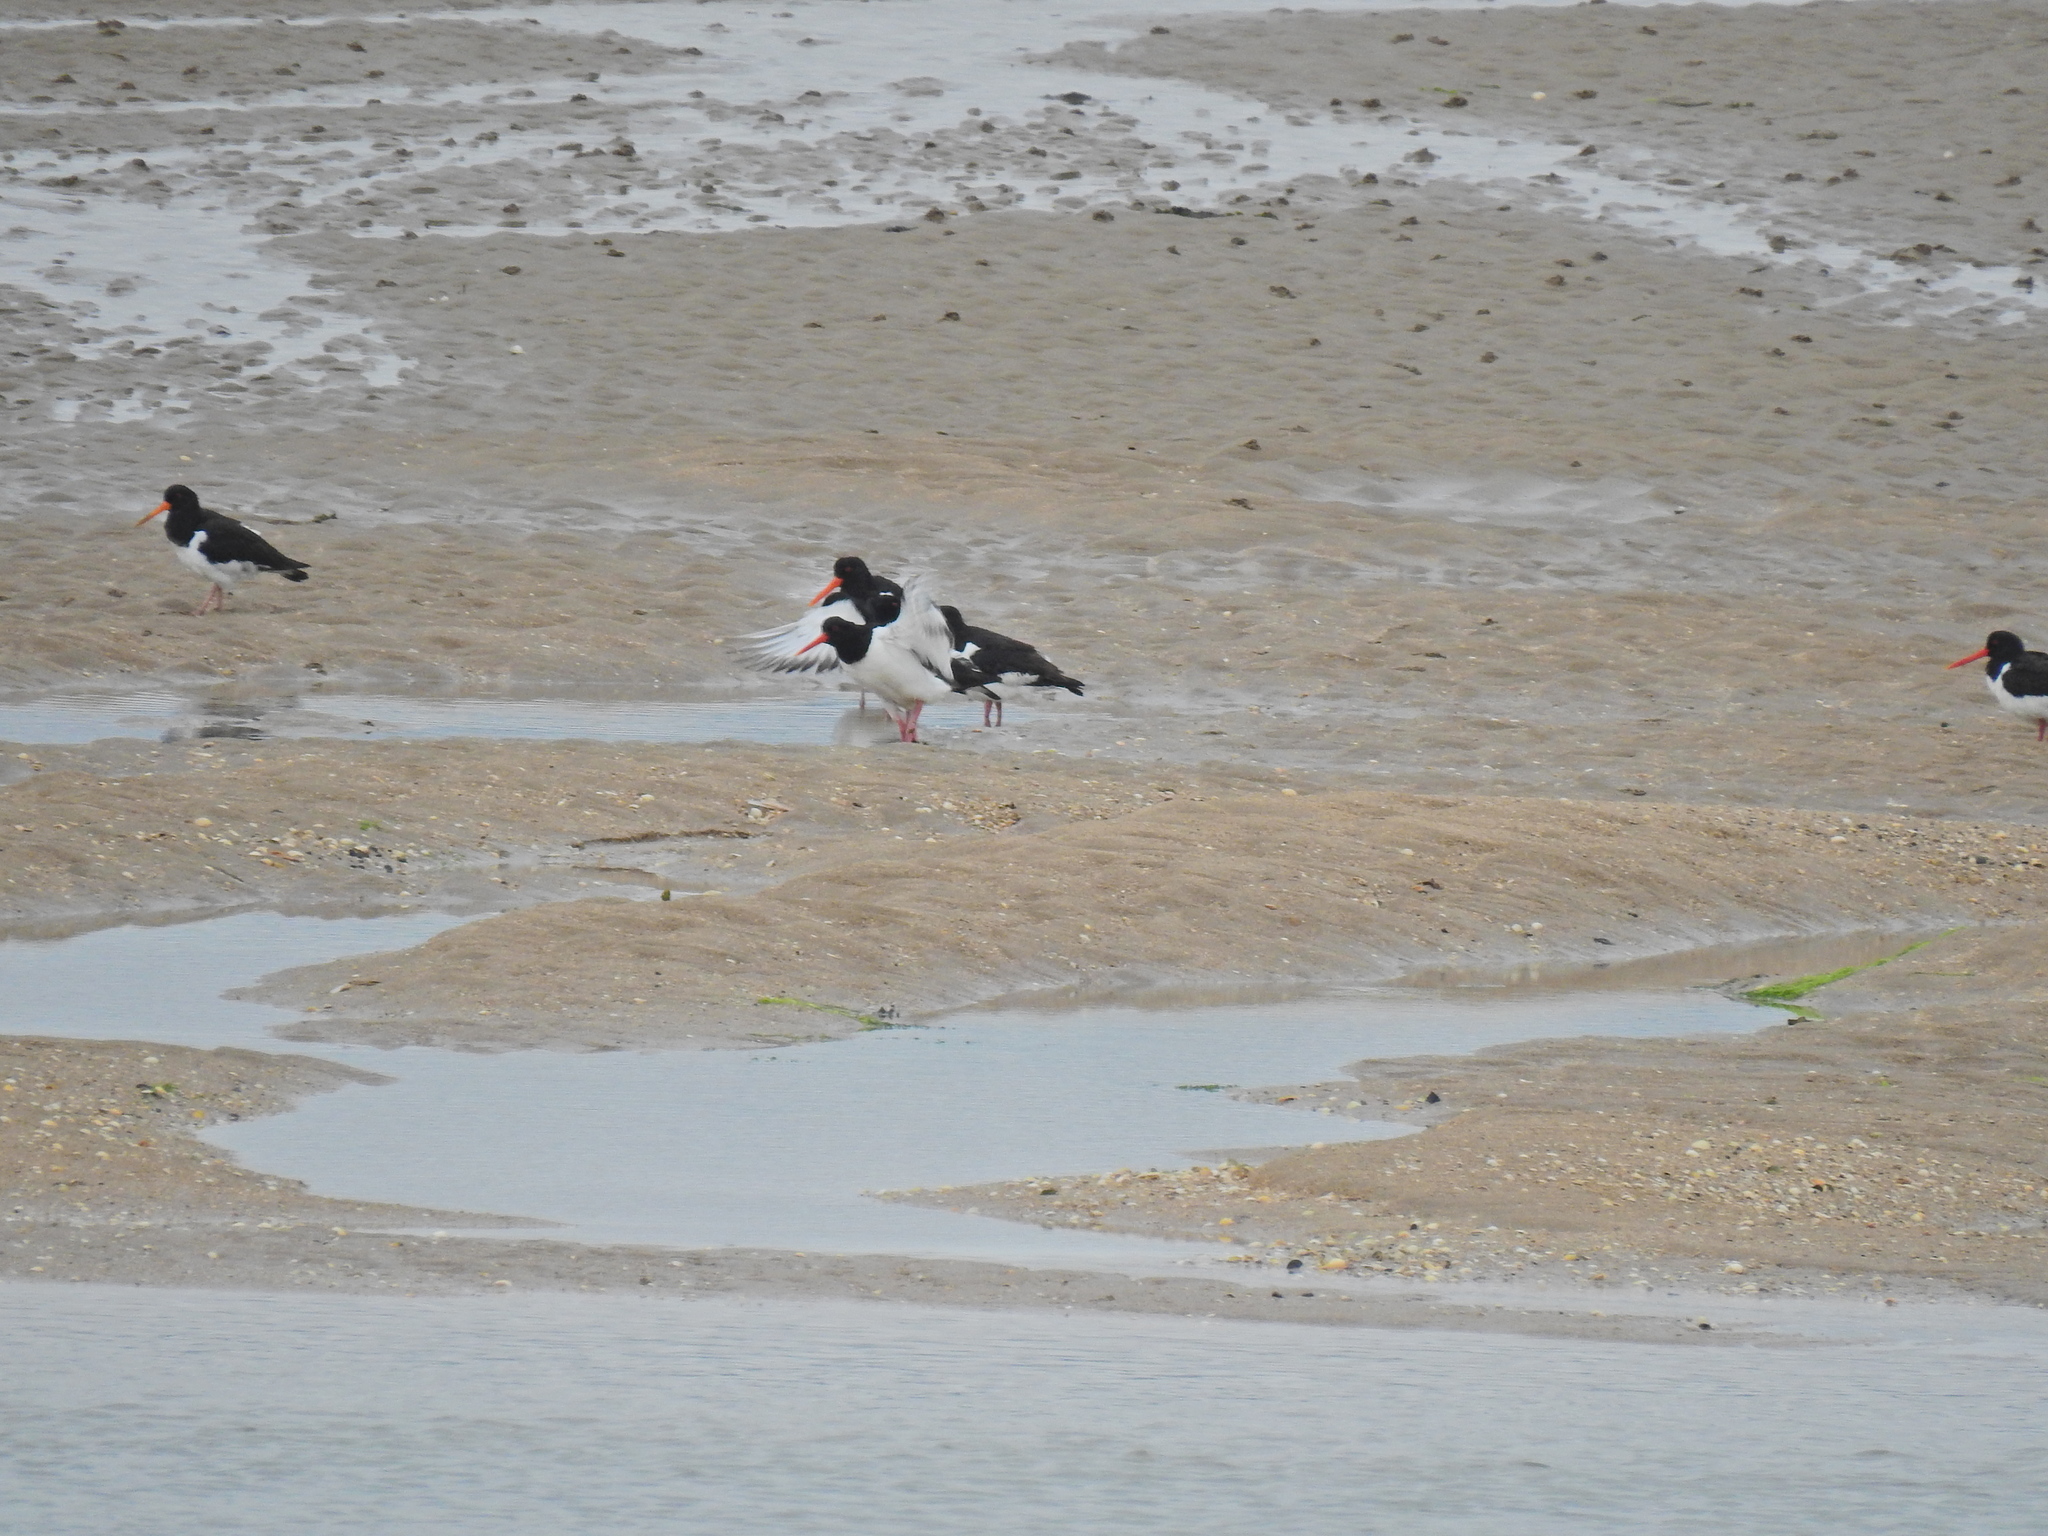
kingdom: Animalia
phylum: Chordata
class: Aves
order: Charadriiformes
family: Haematopodidae
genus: Haematopus
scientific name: Haematopus ostralegus
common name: Eurasian oystercatcher
